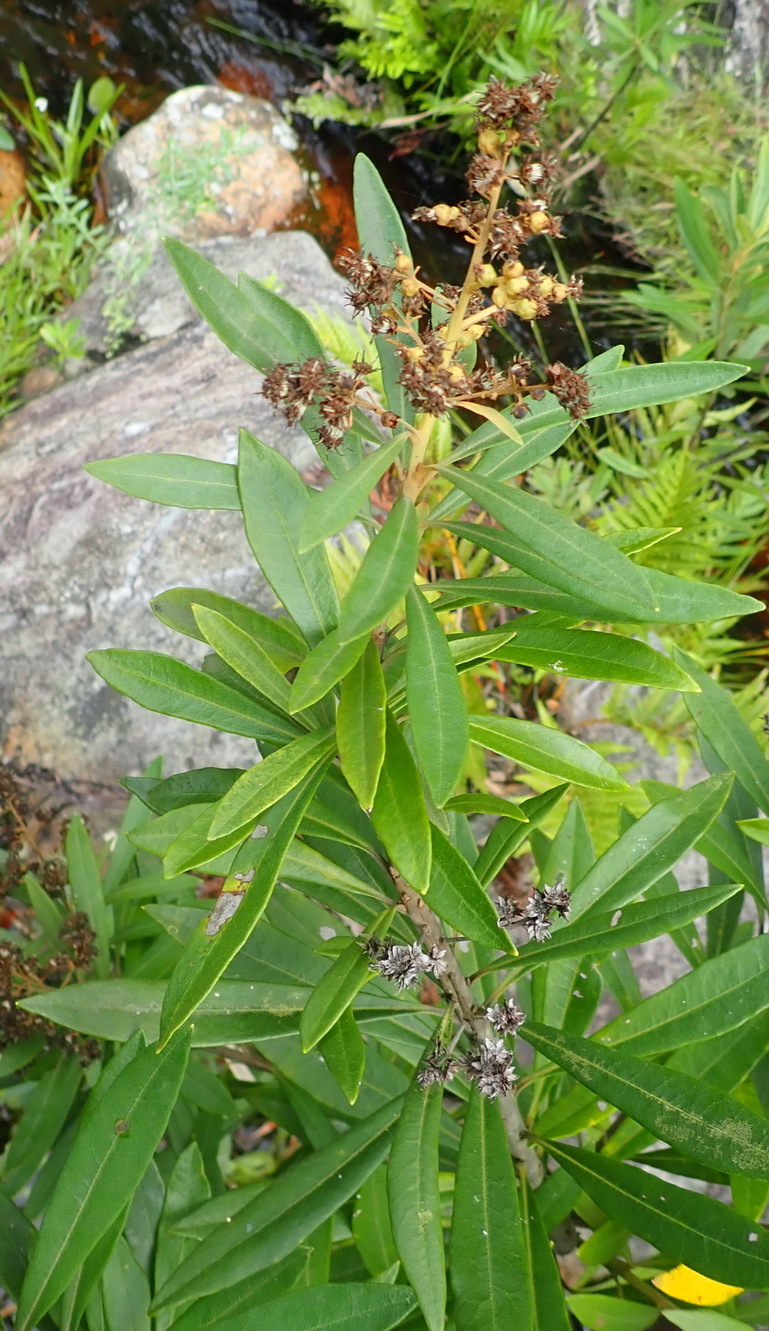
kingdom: Plantae
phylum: Tracheophyta
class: Magnoliopsida
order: Asterales
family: Asteraceae
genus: Brachylaena
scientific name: Brachylaena neriifolia
